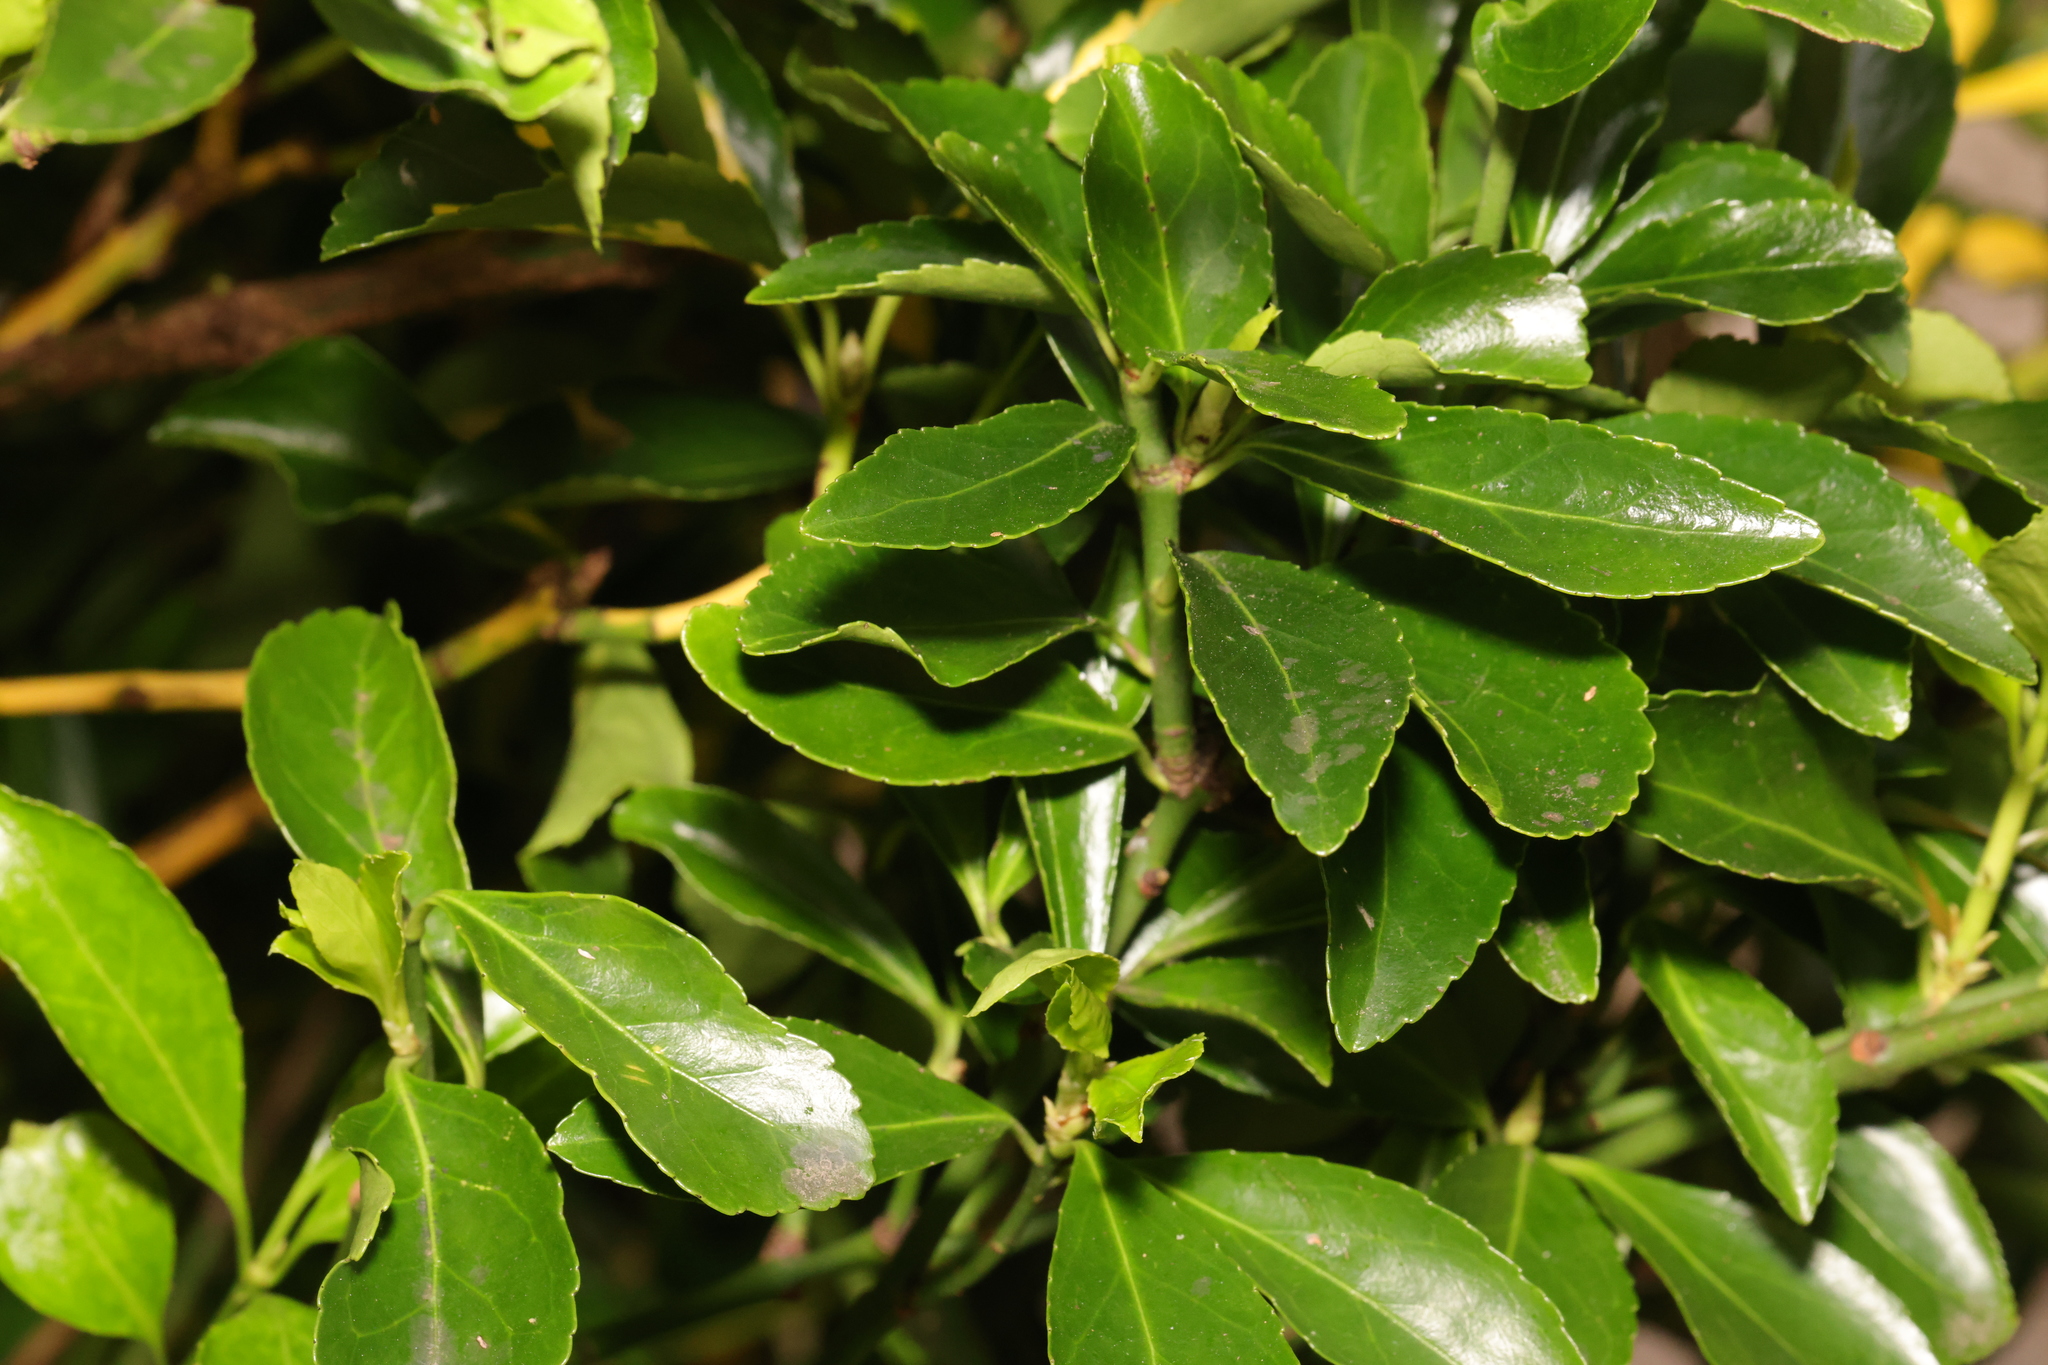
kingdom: Plantae
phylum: Tracheophyta
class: Magnoliopsida
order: Celastrales
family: Celastraceae
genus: Euonymus
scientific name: Euonymus japonicus
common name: Japanese spindletree
